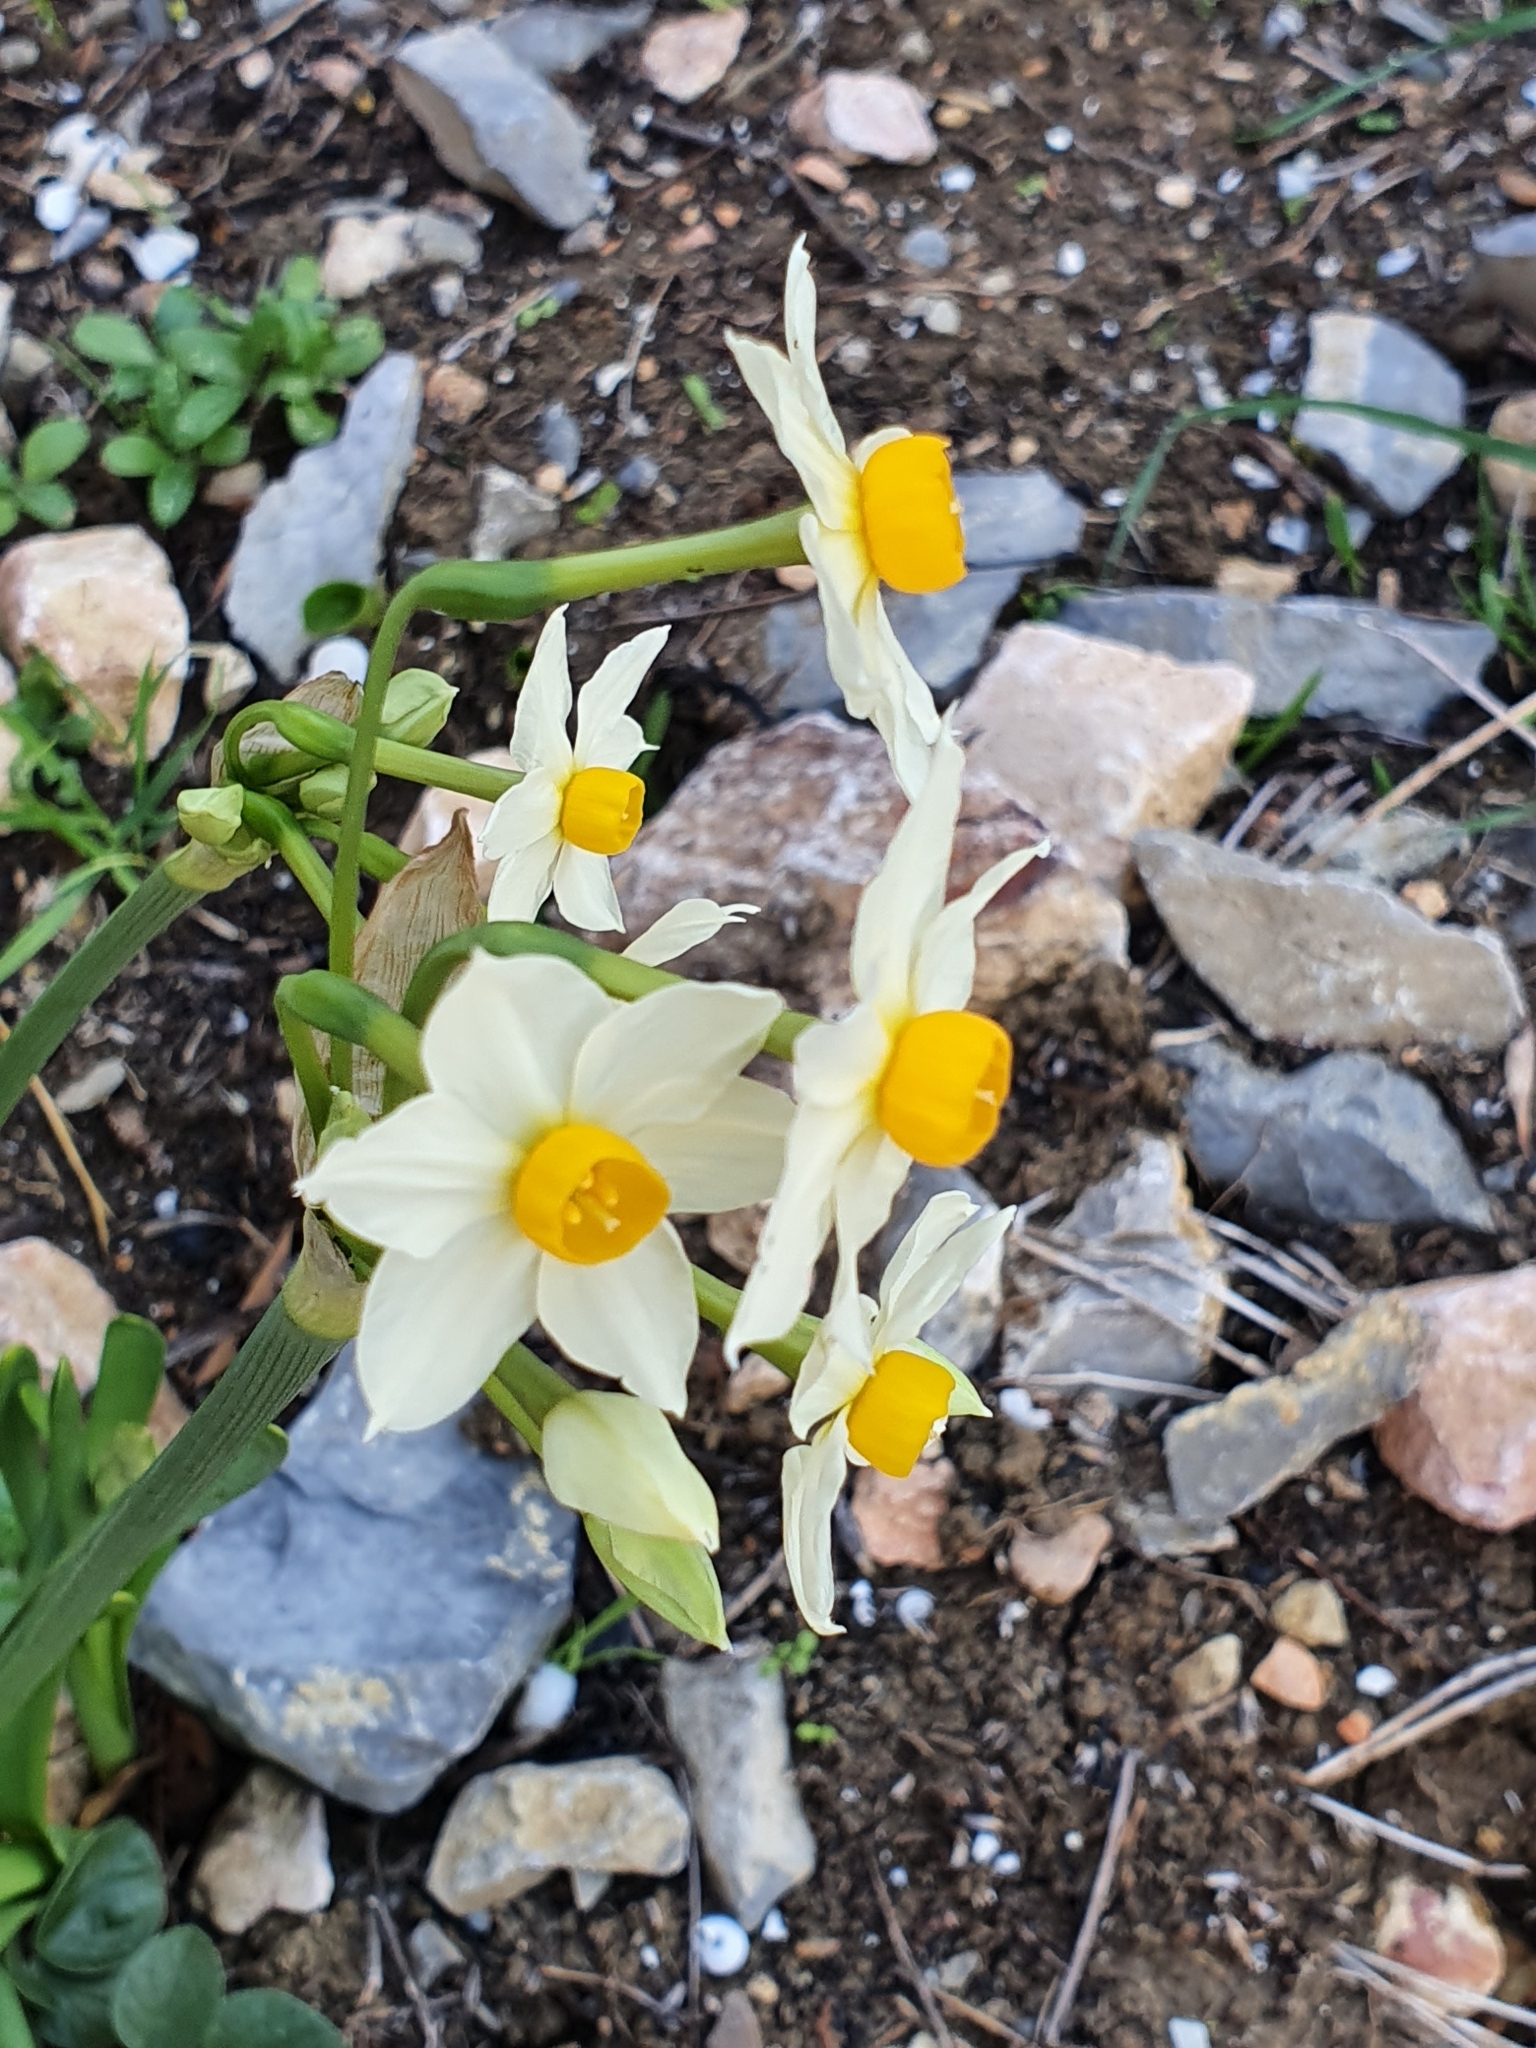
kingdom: Plantae
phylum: Tracheophyta
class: Liliopsida
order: Asparagales
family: Amaryllidaceae
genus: Narcissus
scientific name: Narcissus tazetta
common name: Bunch-flowered daffodil
